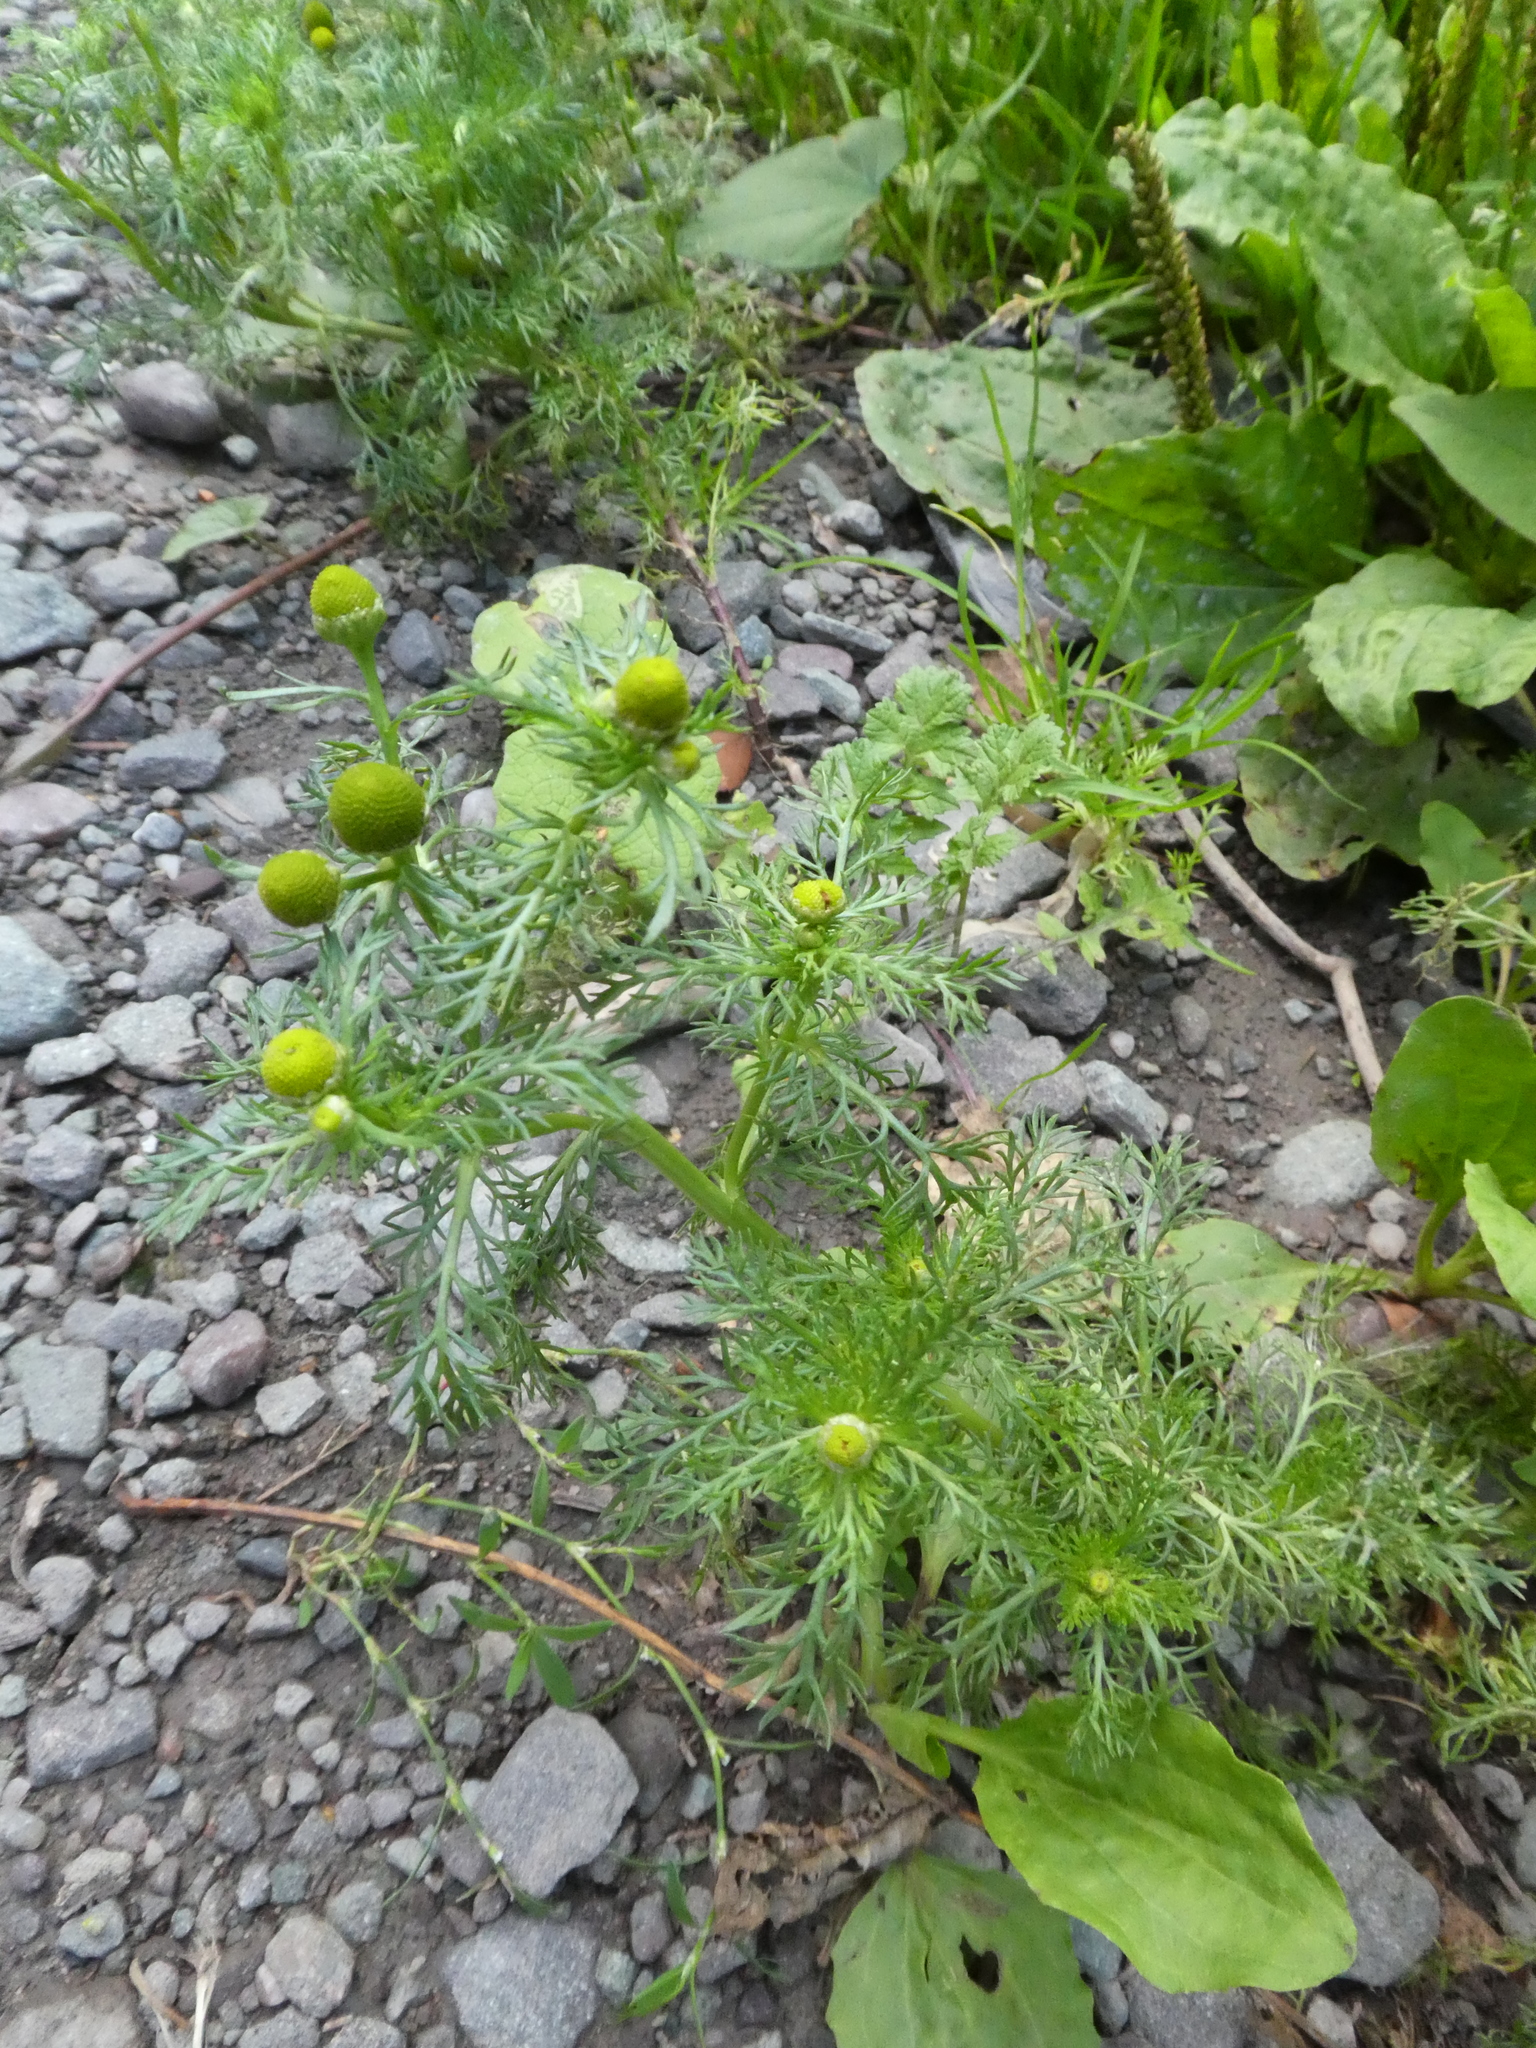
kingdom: Plantae
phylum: Tracheophyta
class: Magnoliopsida
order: Asterales
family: Asteraceae
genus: Matricaria
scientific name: Matricaria discoidea
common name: Disc mayweed
